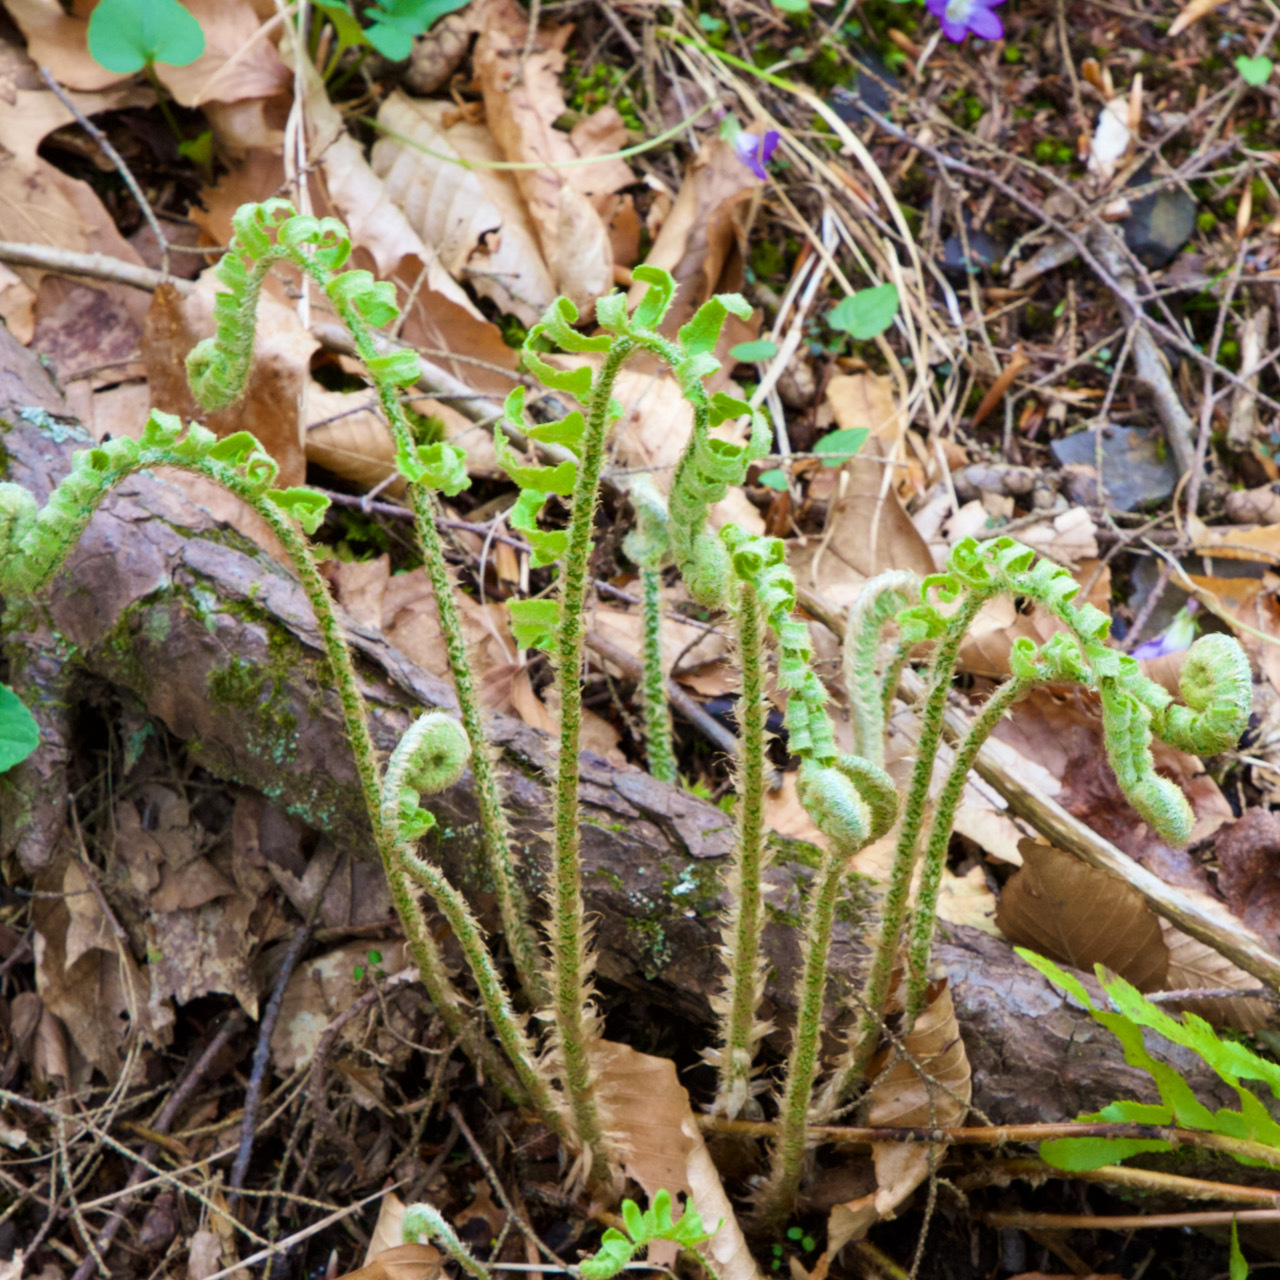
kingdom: Plantae
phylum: Tracheophyta
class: Polypodiopsida
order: Polypodiales
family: Dryopteridaceae
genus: Polystichum
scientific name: Polystichum acrostichoides
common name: Christmas fern
